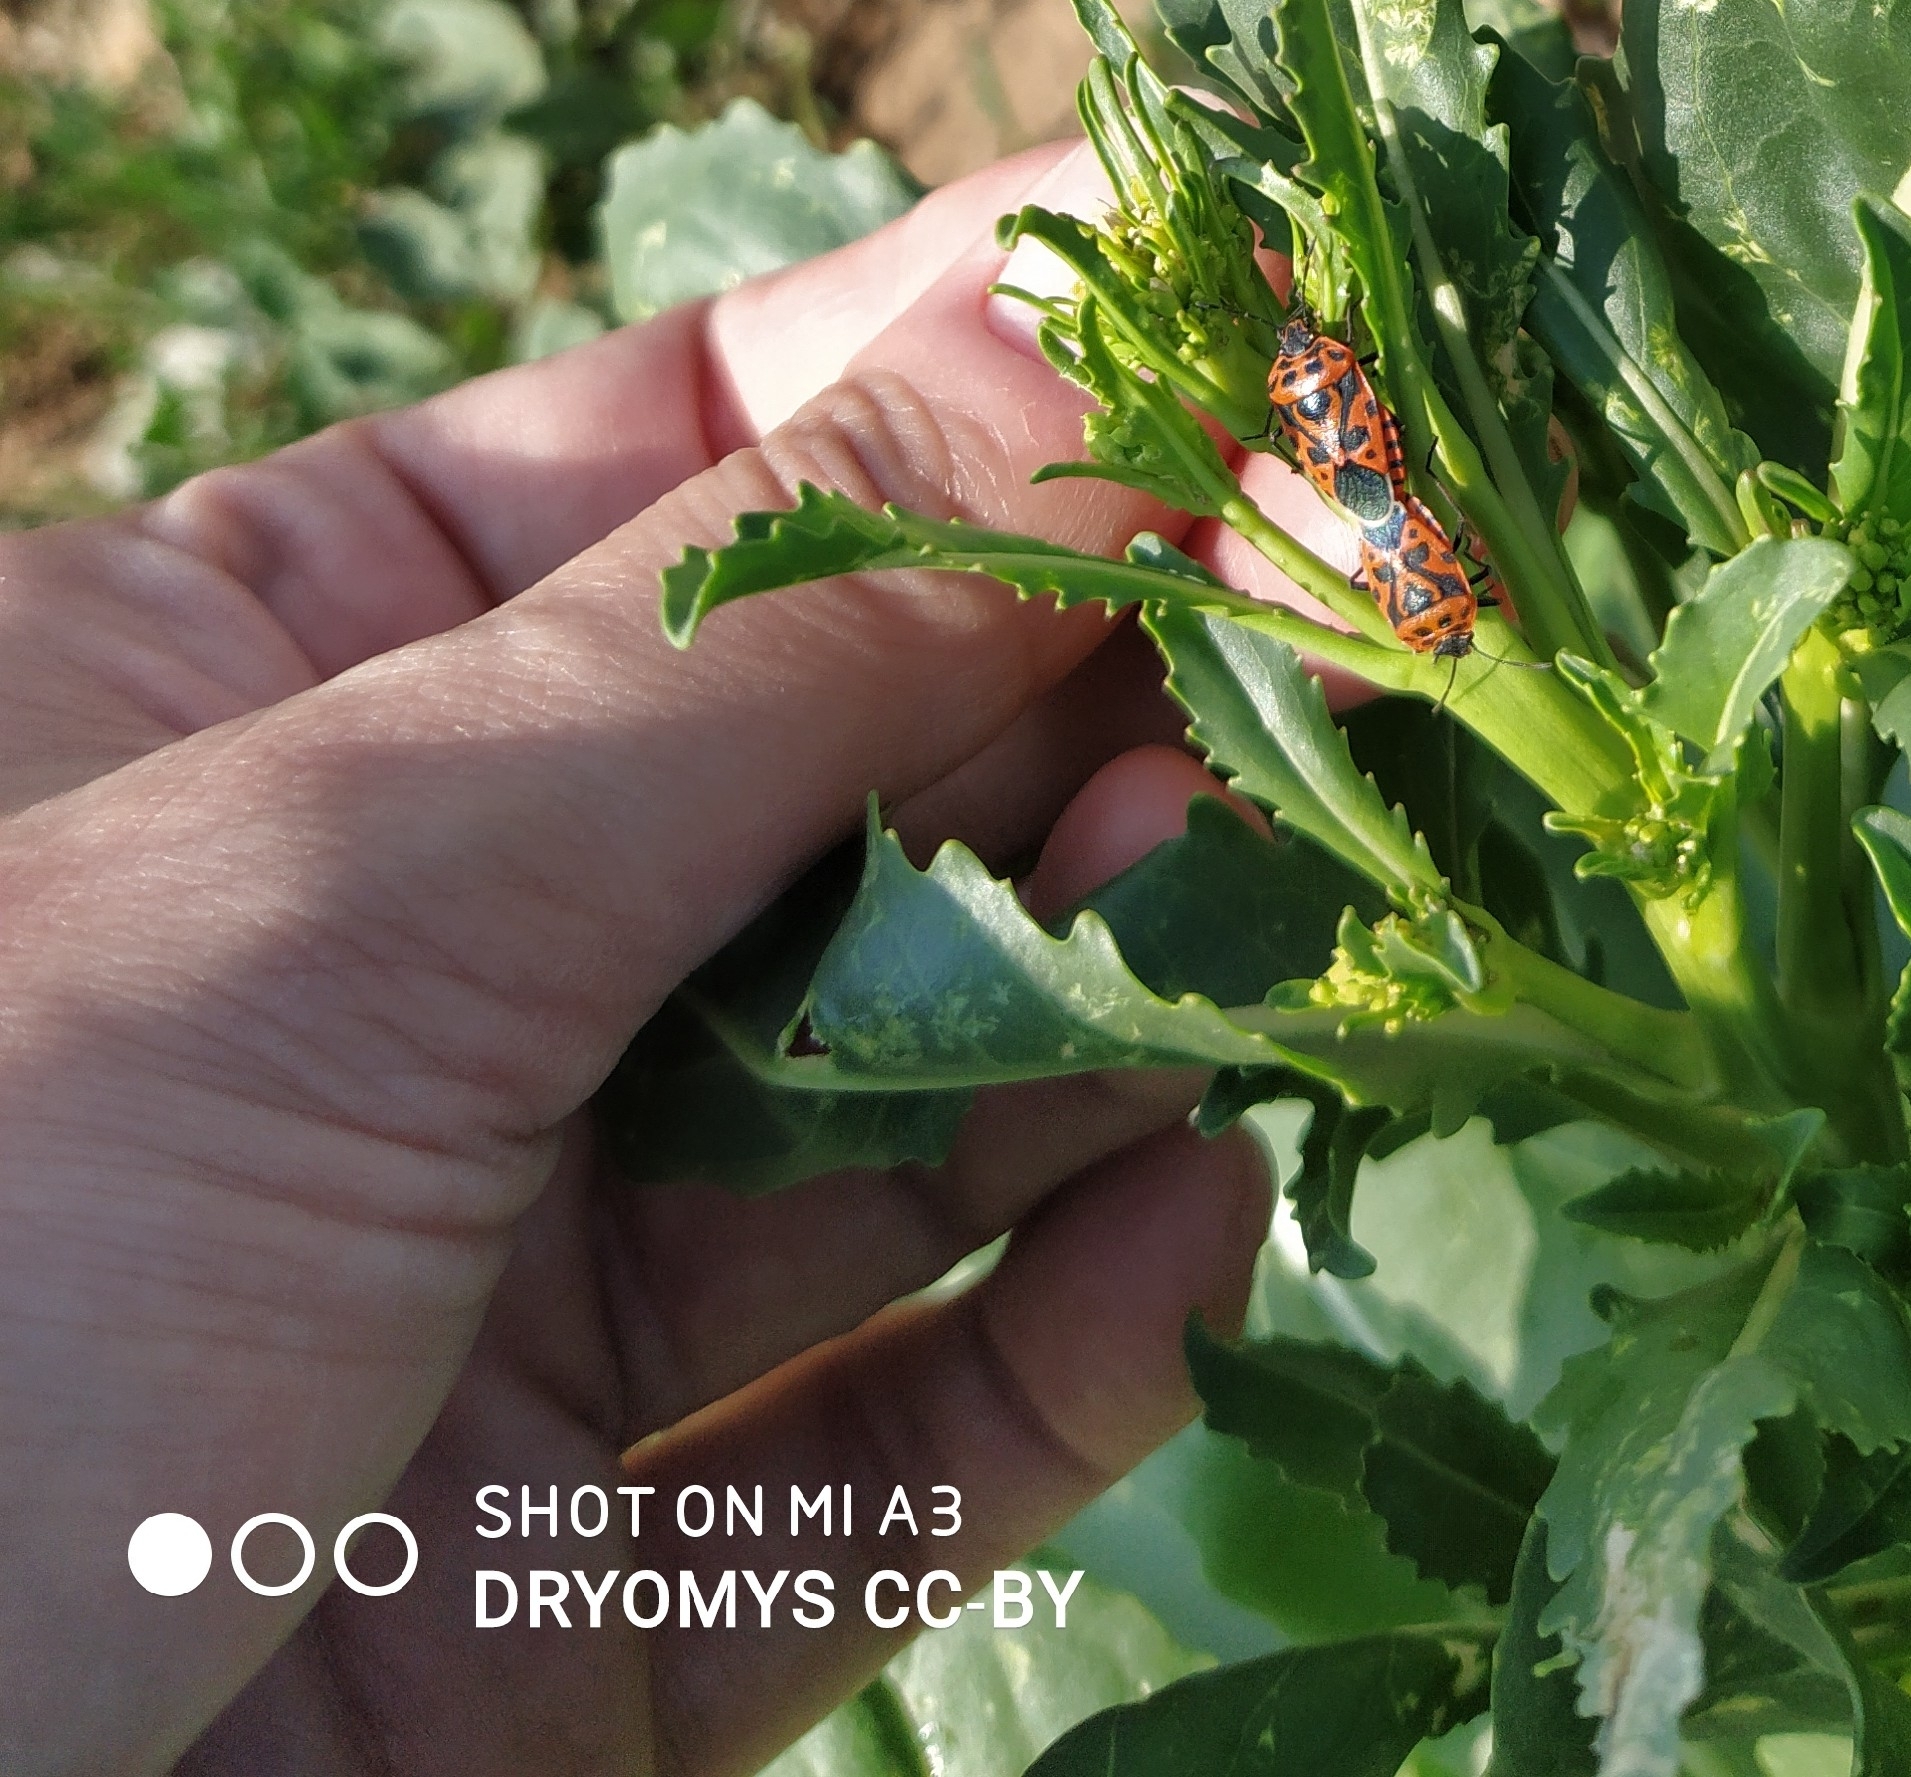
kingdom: Animalia
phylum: Arthropoda
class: Insecta
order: Hemiptera
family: Pentatomidae
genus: Eurydema
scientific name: Eurydema ventralis
